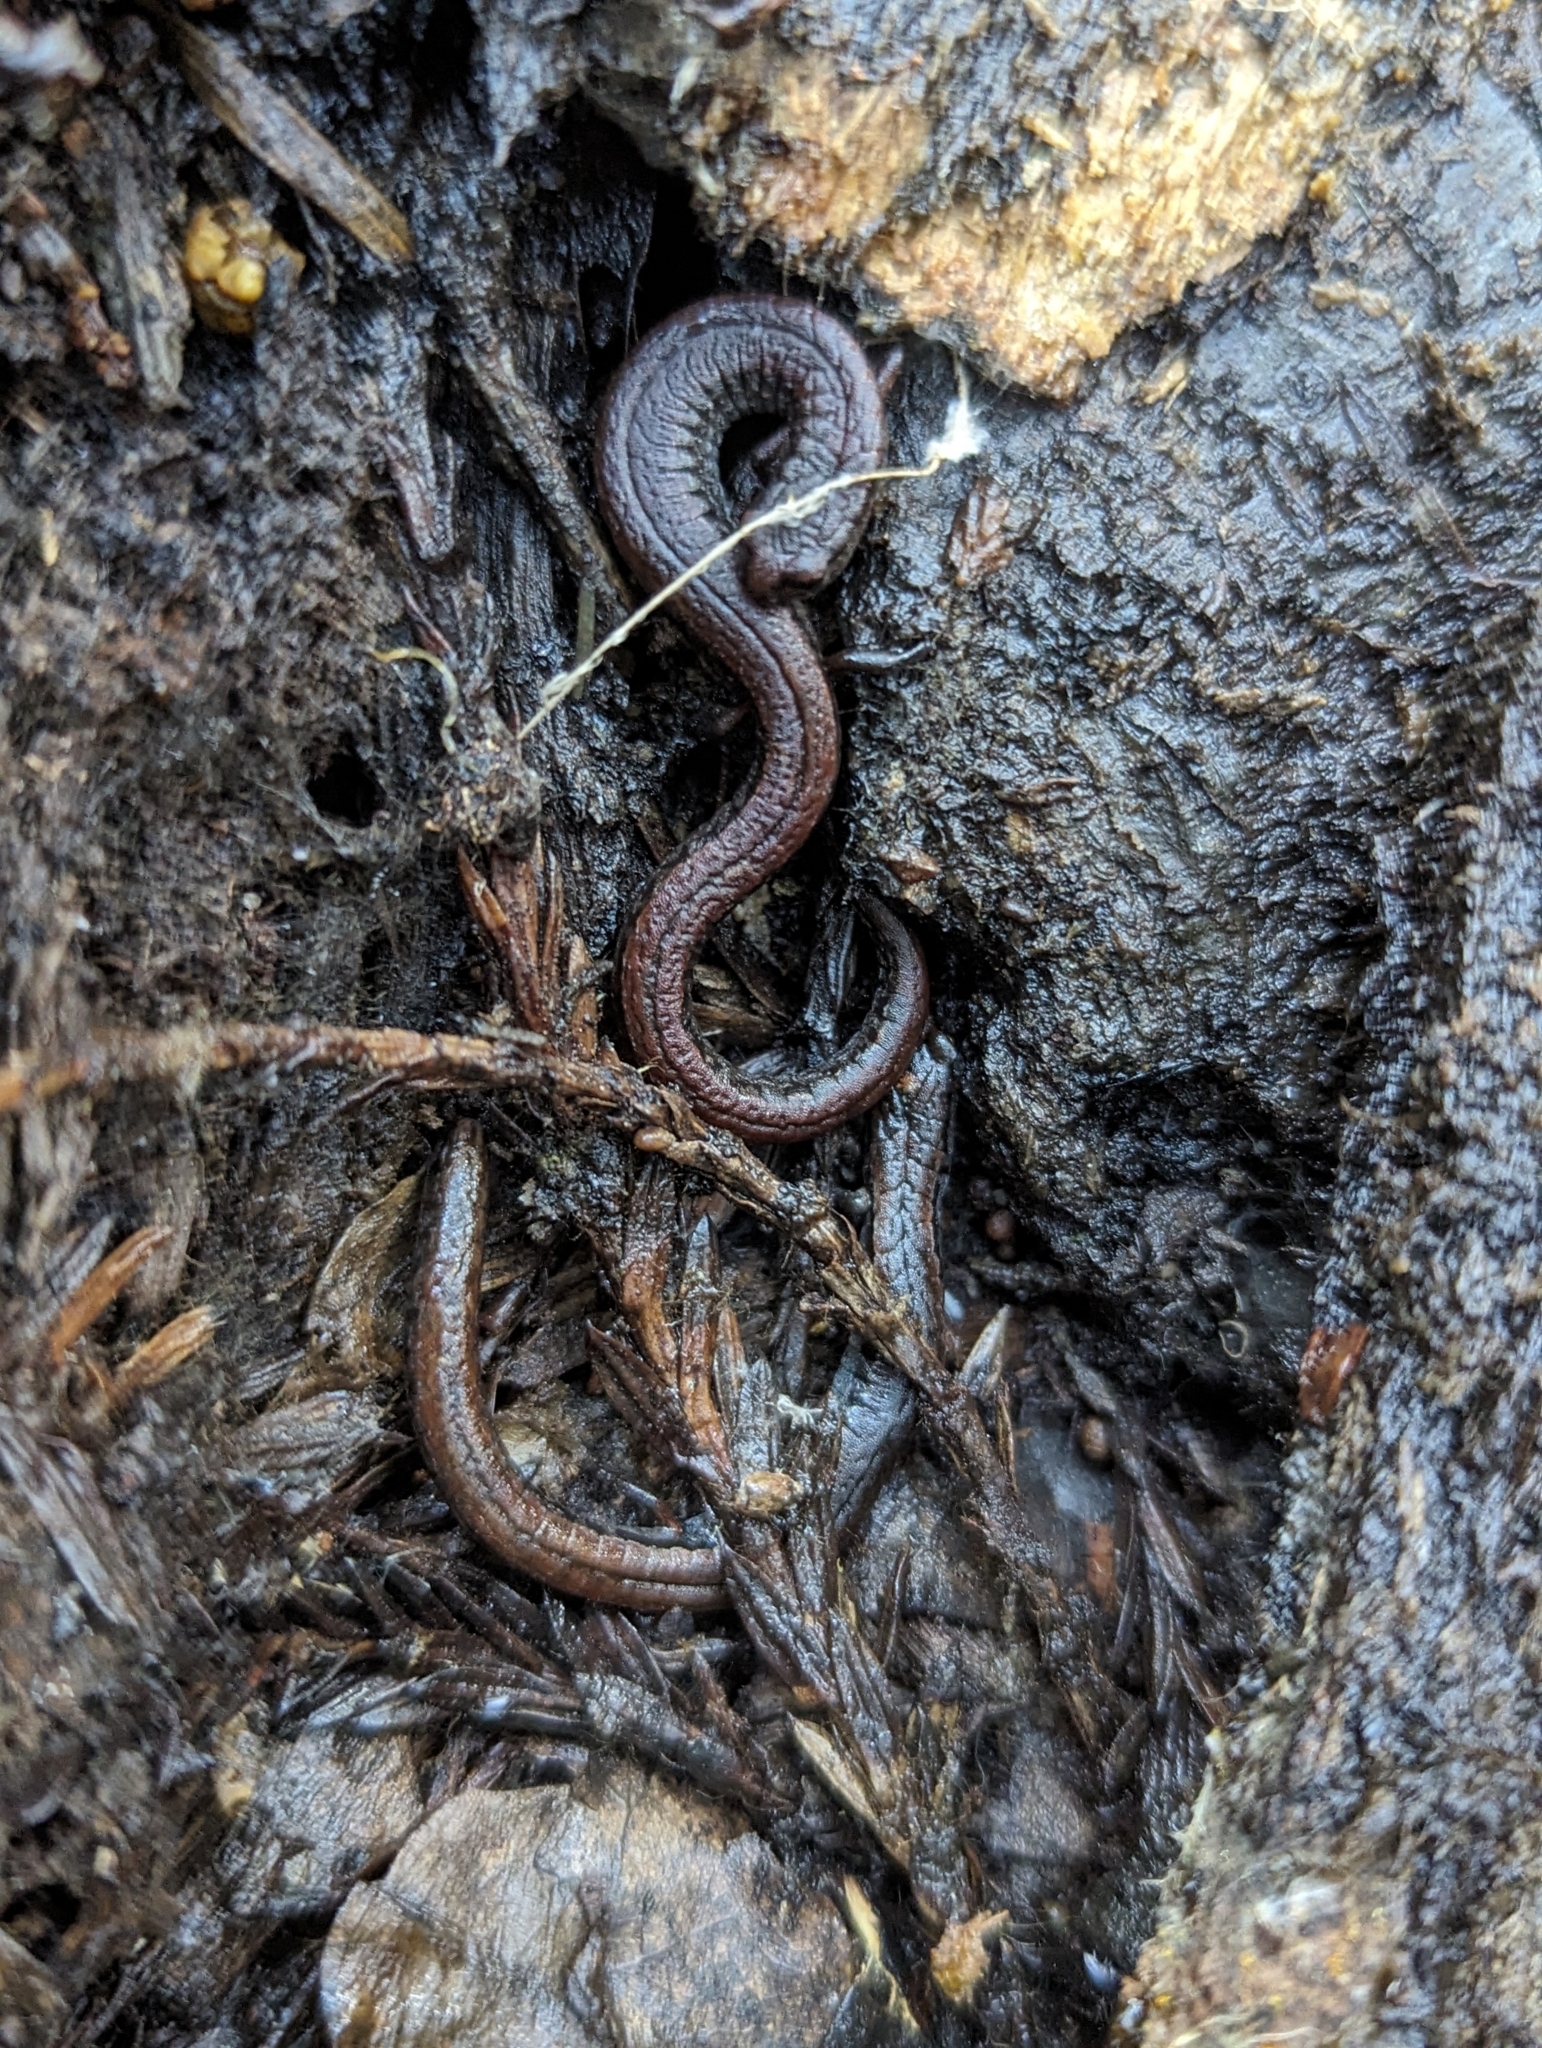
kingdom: Animalia
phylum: Chordata
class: Amphibia
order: Caudata
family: Plethodontidae
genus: Batrachoseps
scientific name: Batrachoseps attenuatus
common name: California slender salamander
